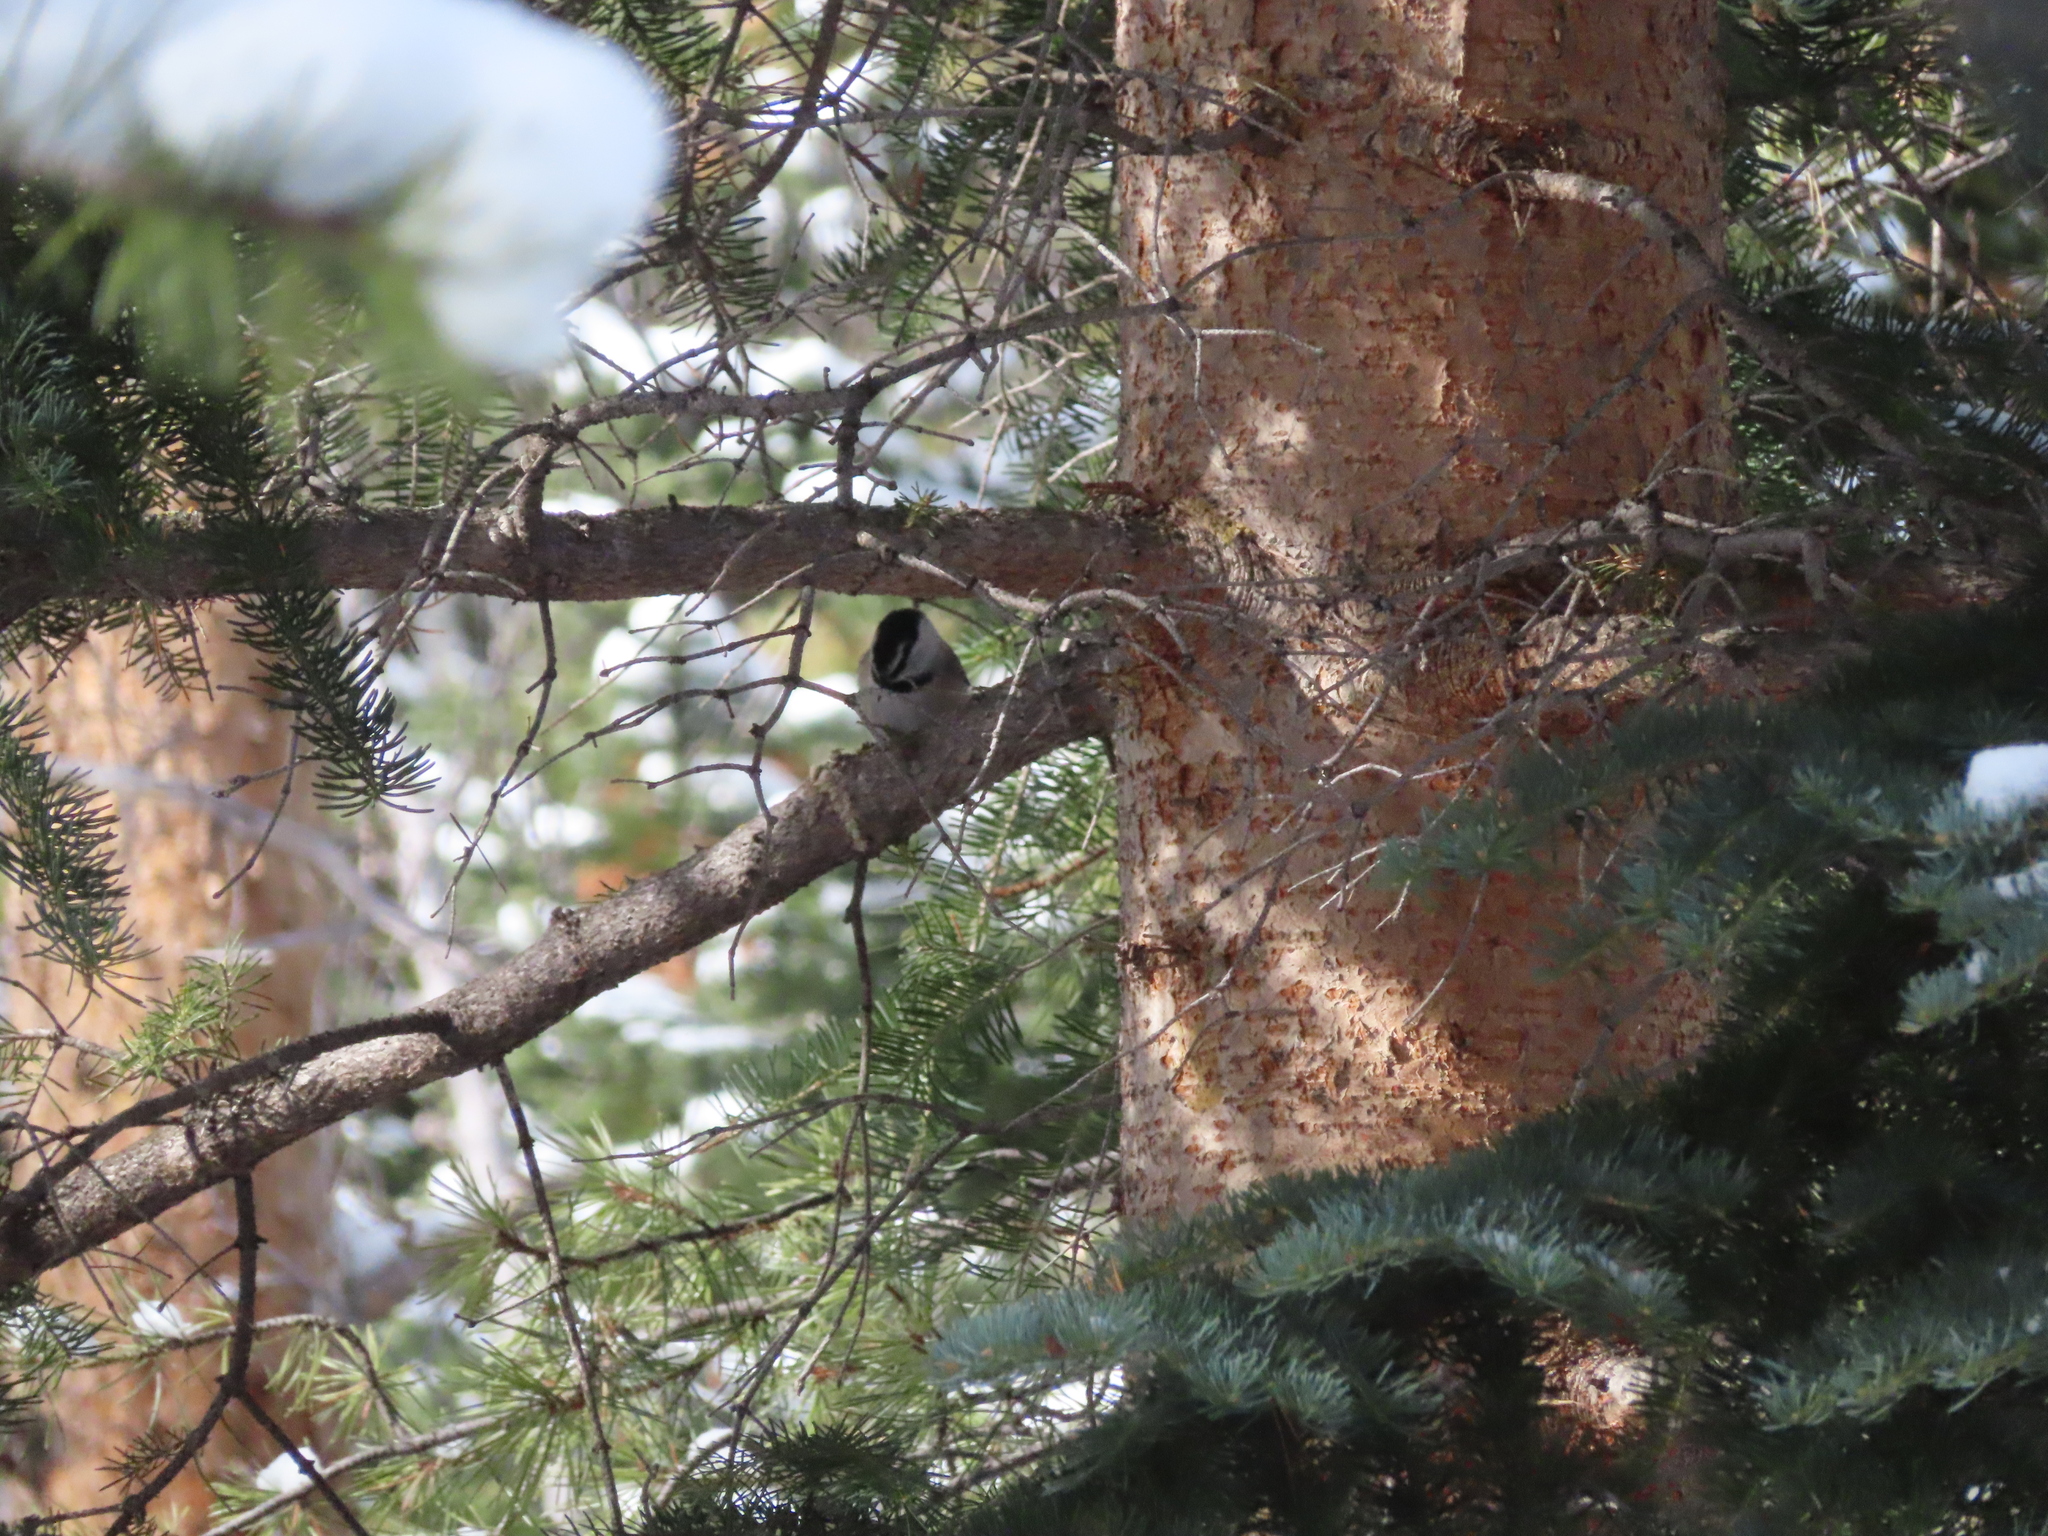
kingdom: Animalia
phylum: Chordata
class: Aves
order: Passeriformes
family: Paridae
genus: Poecile
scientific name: Poecile gambeli
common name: Mountain chickadee
